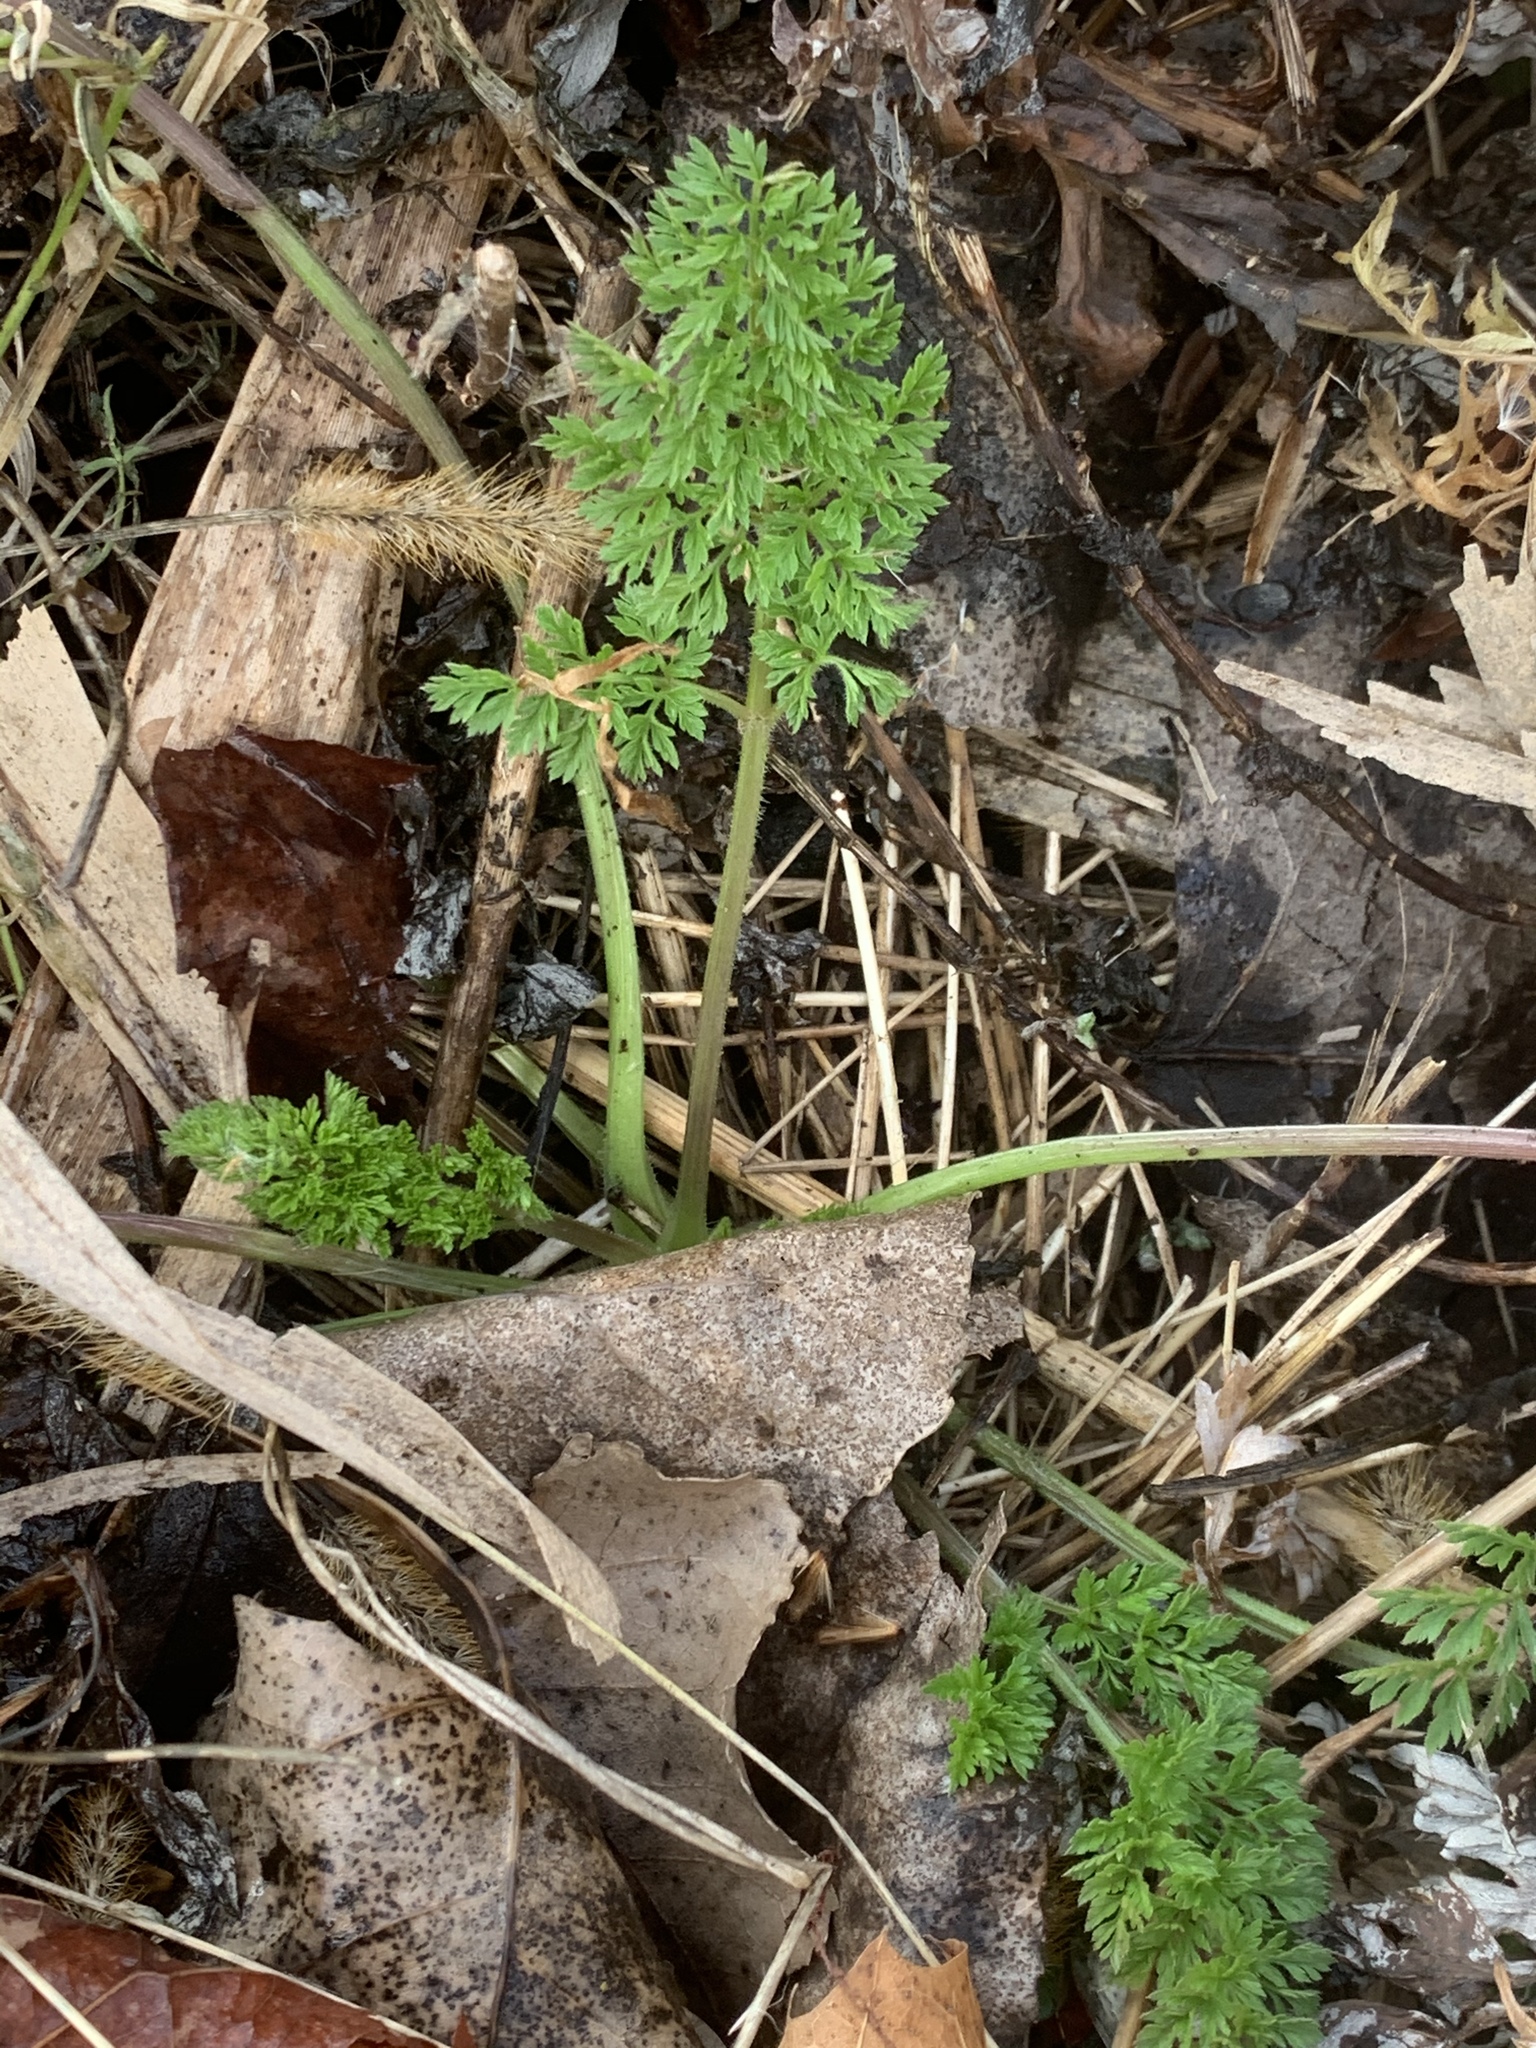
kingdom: Plantae
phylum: Tracheophyta
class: Magnoliopsida
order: Apiales
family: Apiaceae
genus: Daucus
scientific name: Daucus carota
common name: Wild carrot
